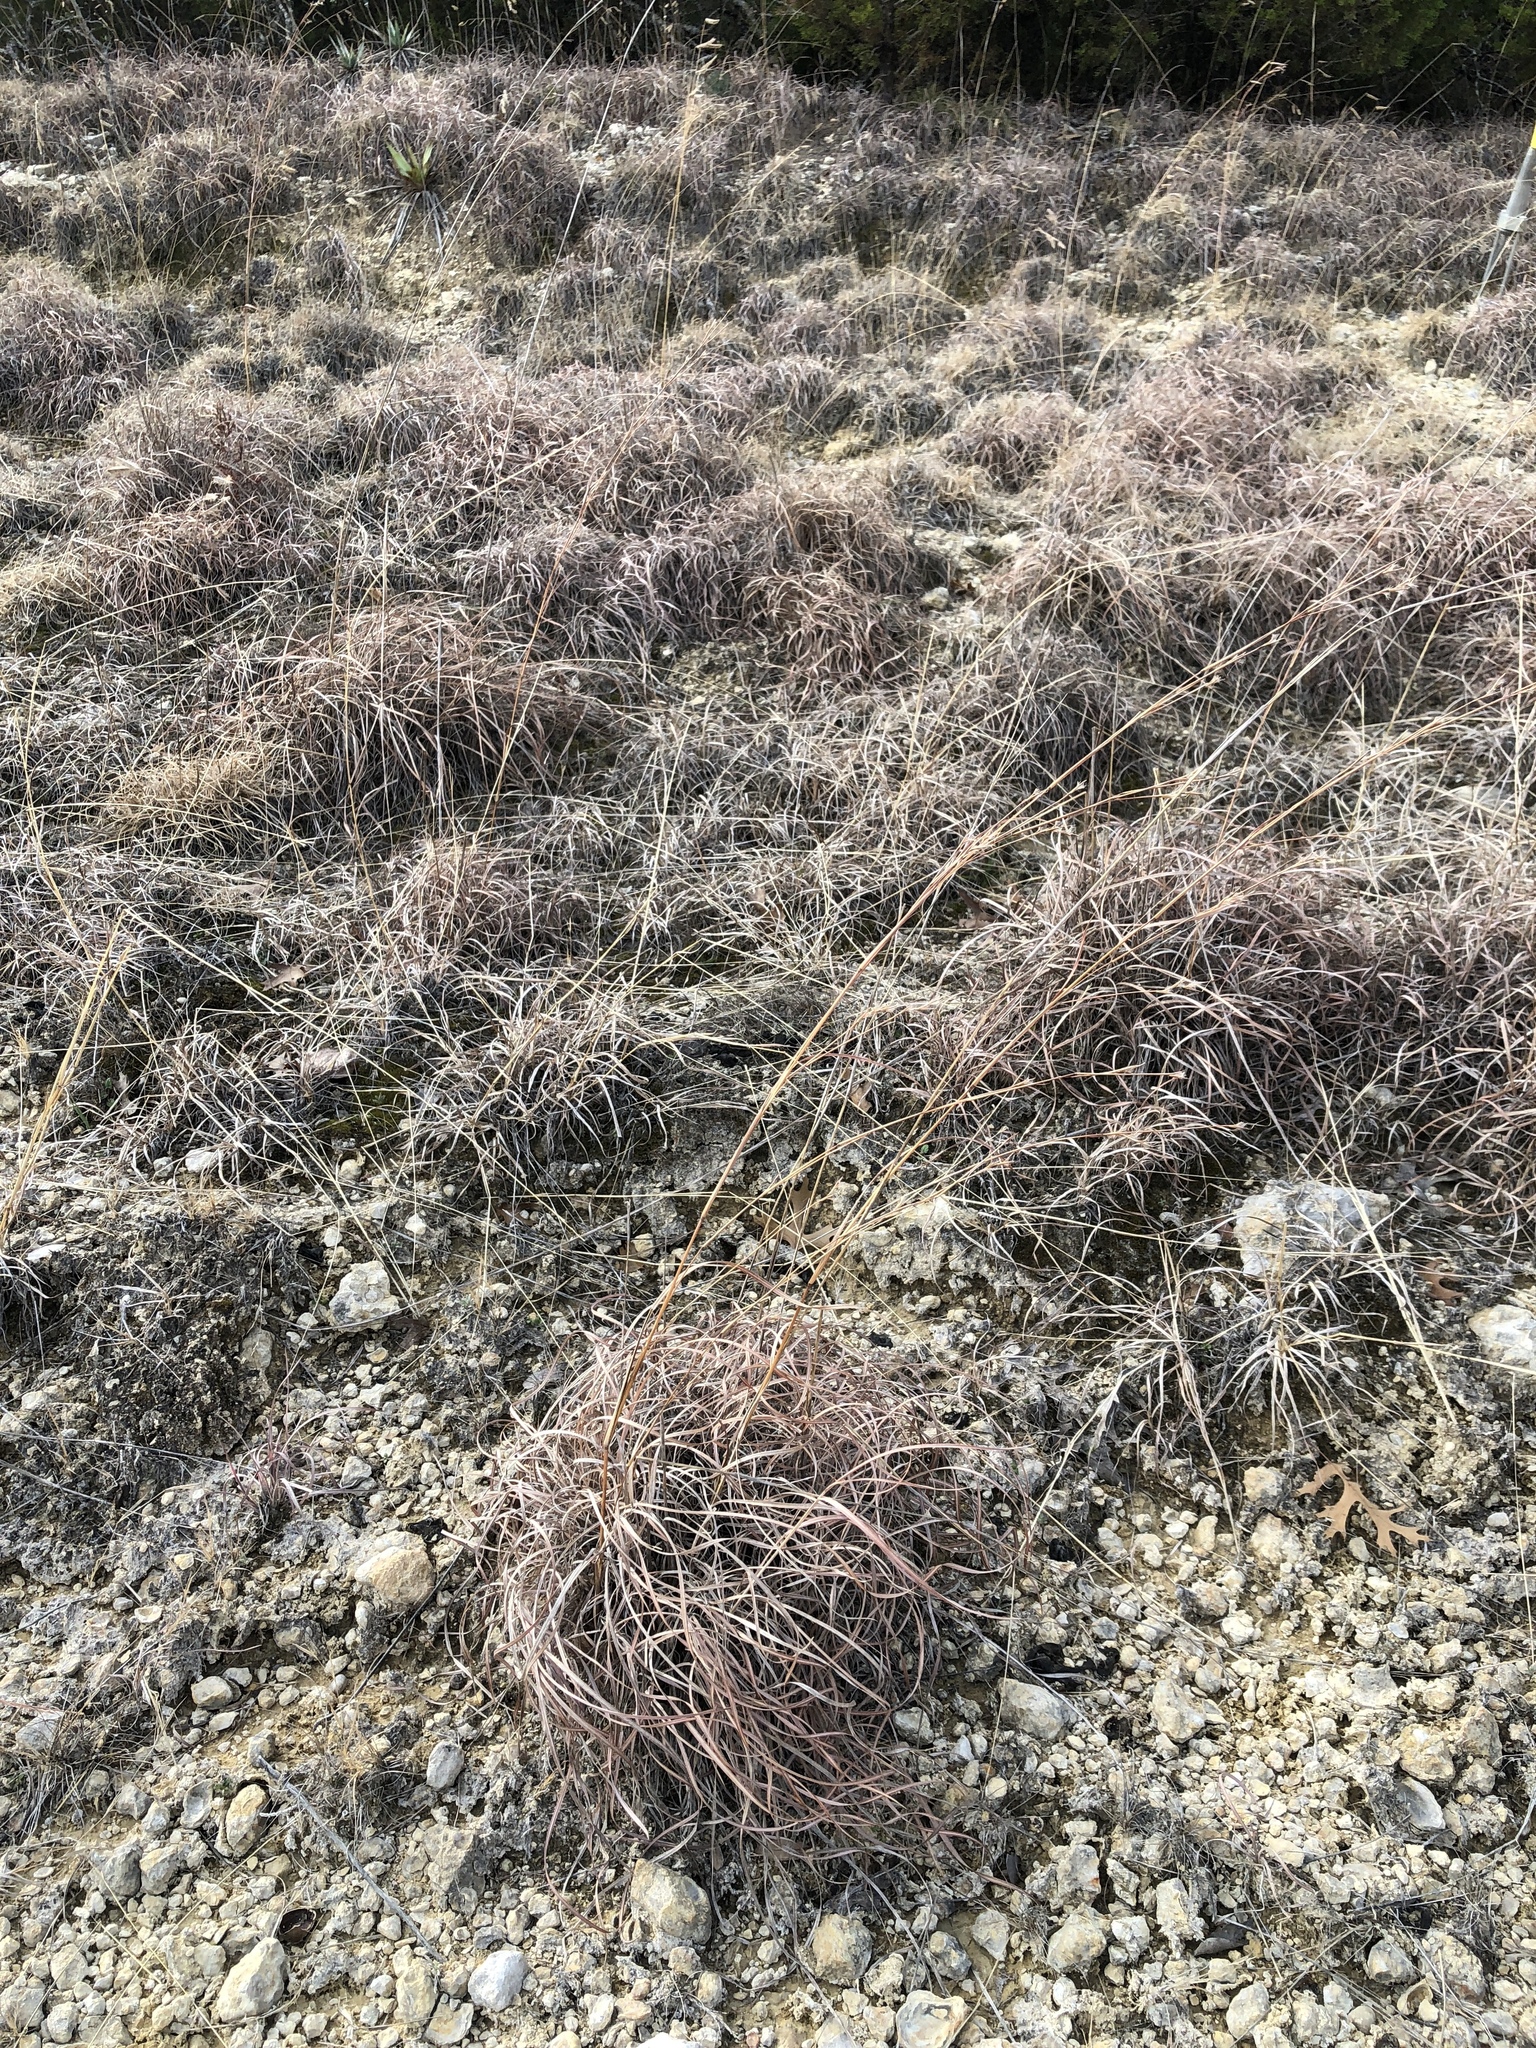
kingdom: Plantae
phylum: Tracheophyta
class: Liliopsida
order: Poales
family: Poaceae
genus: Schizachyrium
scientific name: Schizachyrium scoparium
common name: Little bluestem
